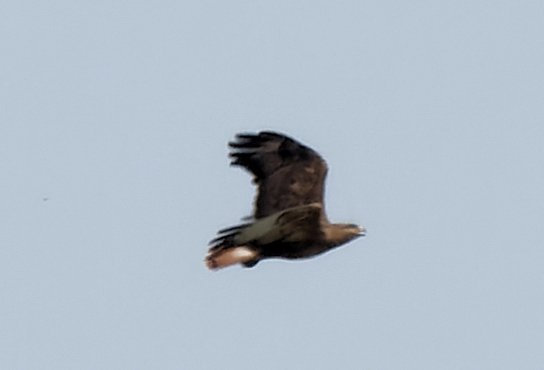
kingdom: Animalia
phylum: Chordata
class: Aves
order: Accipitriformes
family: Accipitridae
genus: Buteo
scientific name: Buteo buteo
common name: Common buzzard
